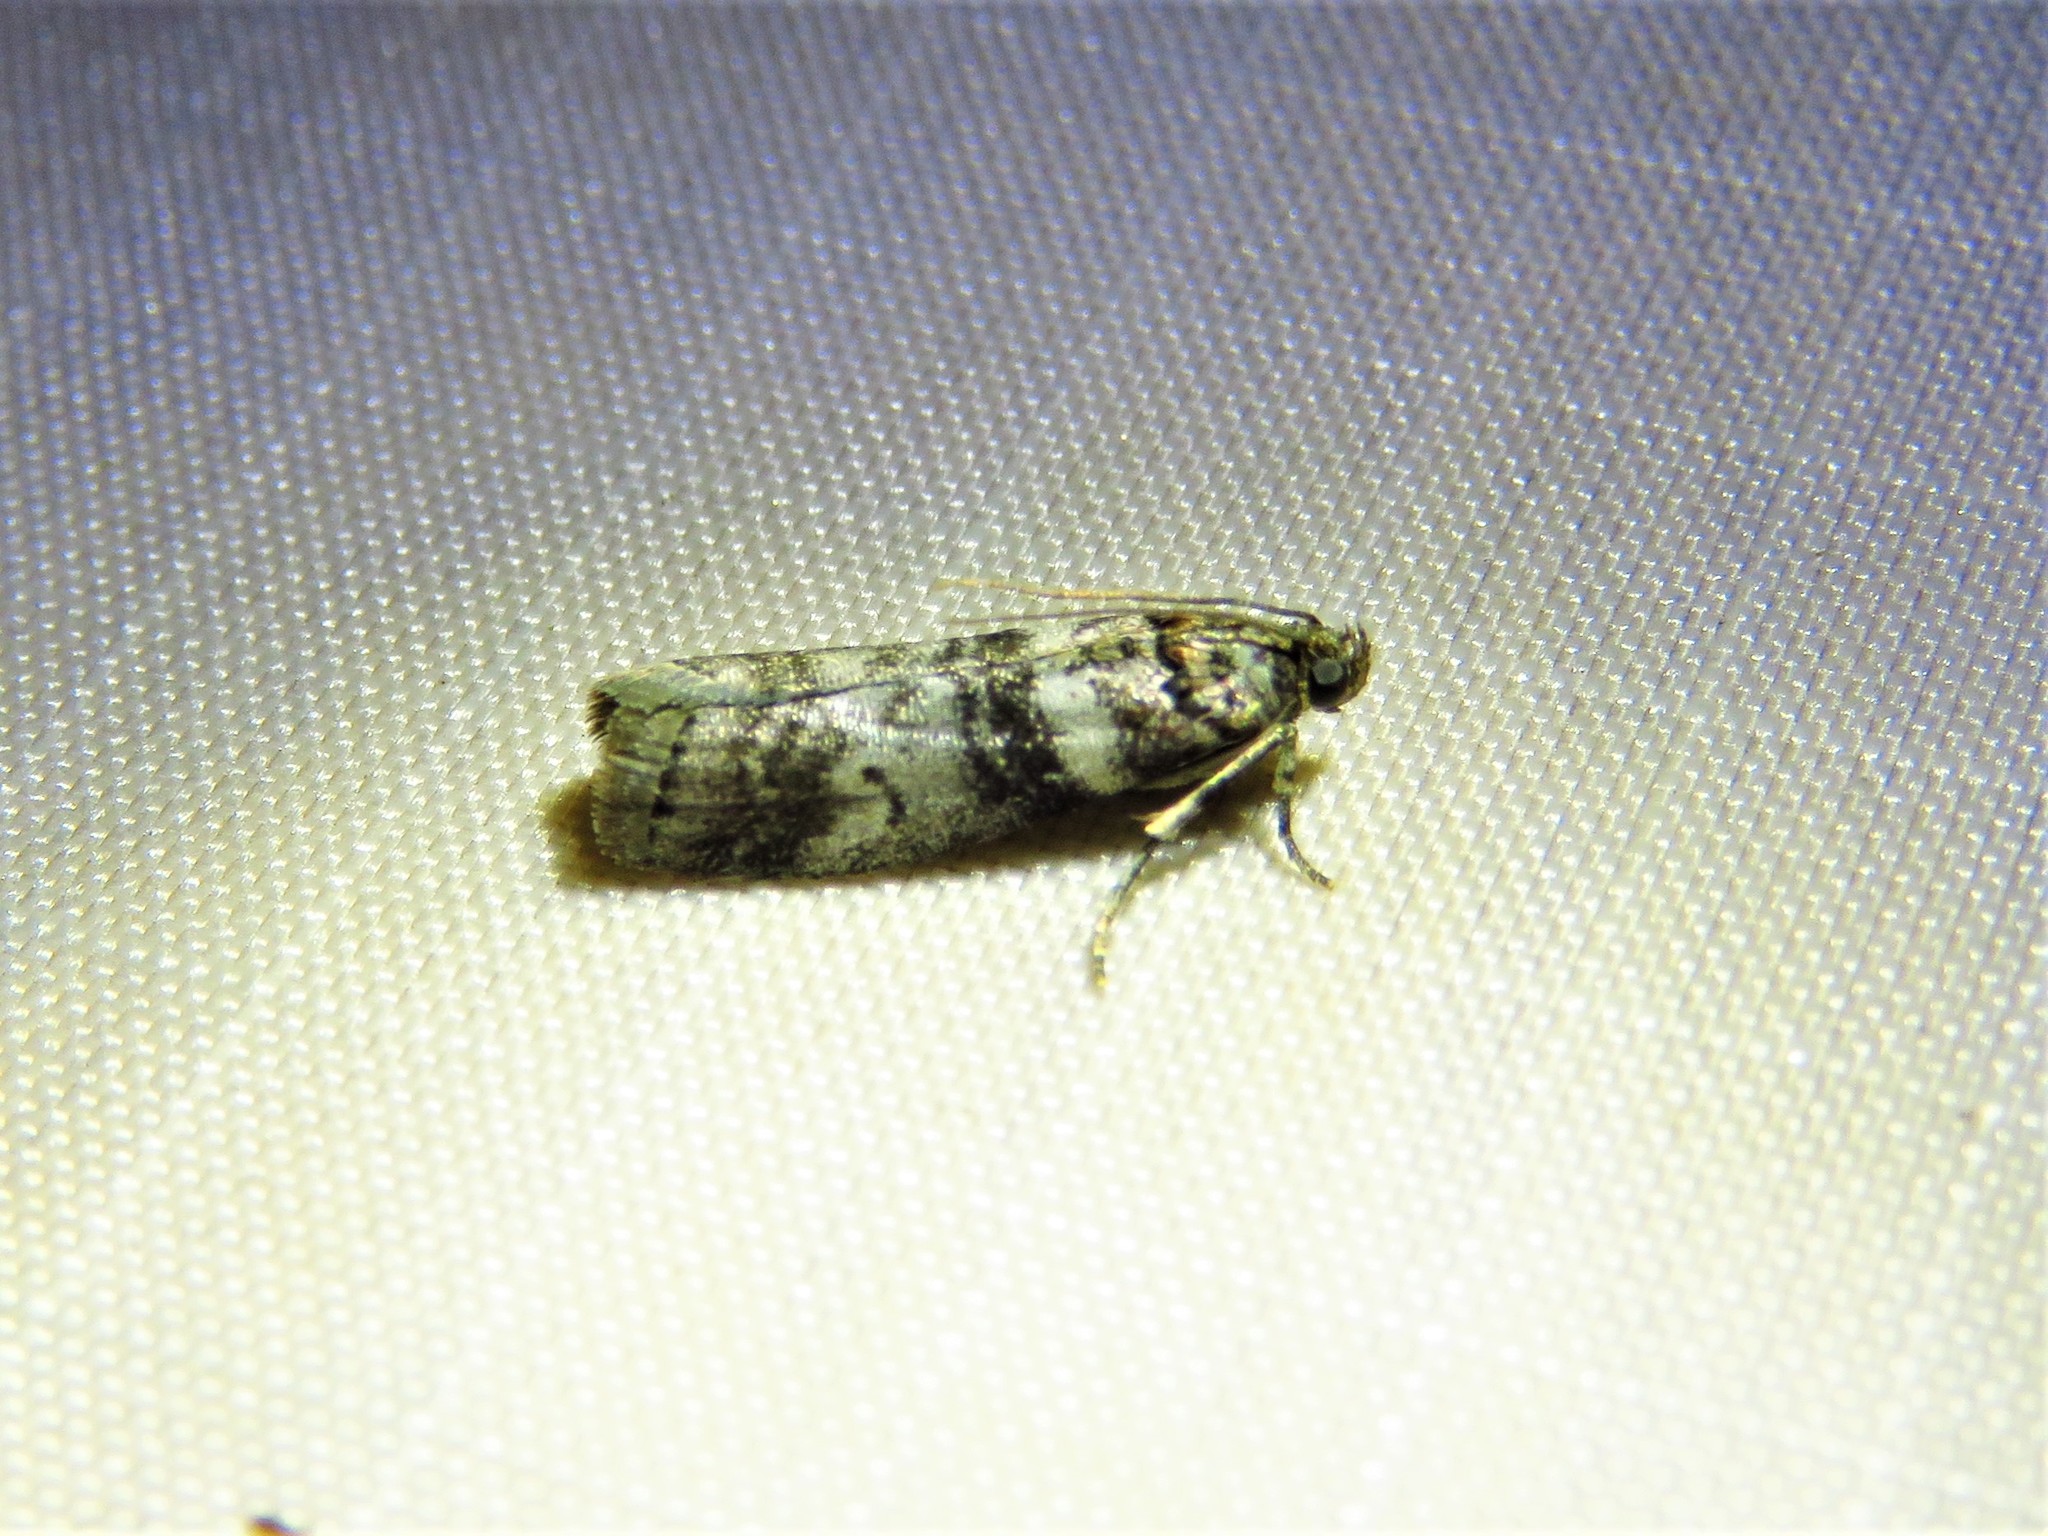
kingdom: Animalia
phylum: Arthropoda
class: Insecta
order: Lepidoptera
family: Pyralidae
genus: Sciota
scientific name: Sciota uvinella
